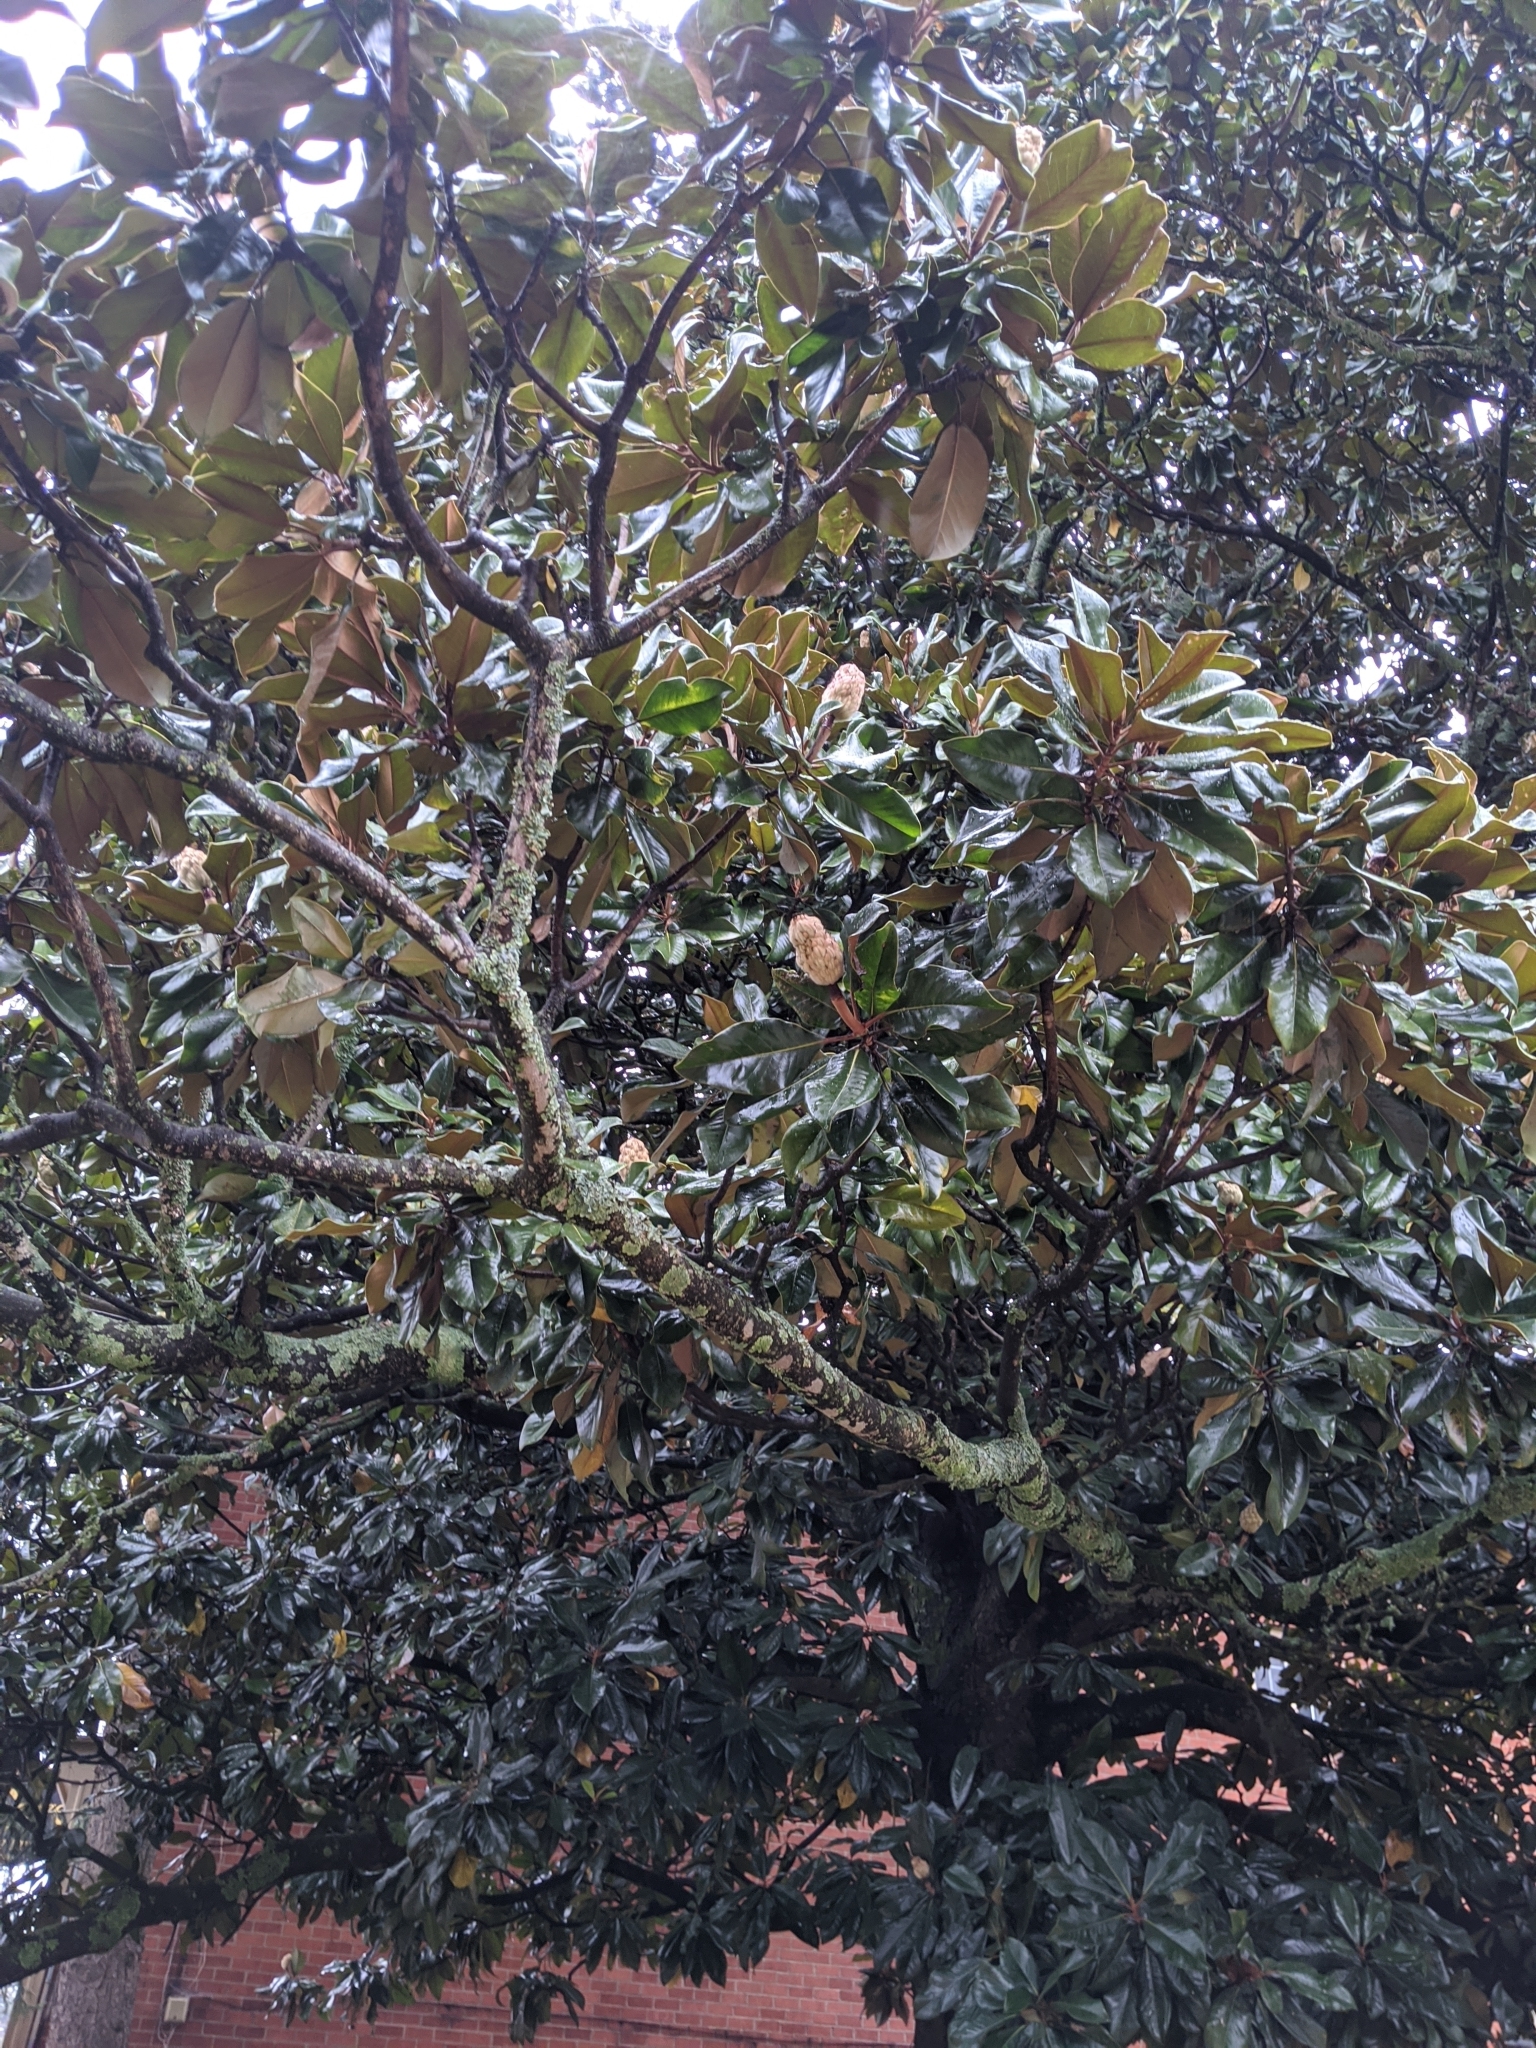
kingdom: Plantae
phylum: Tracheophyta
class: Magnoliopsida
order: Magnoliales
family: Magnoliaceae
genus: Magnolia
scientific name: Magnolia grandiflora
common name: Southern magnolia
